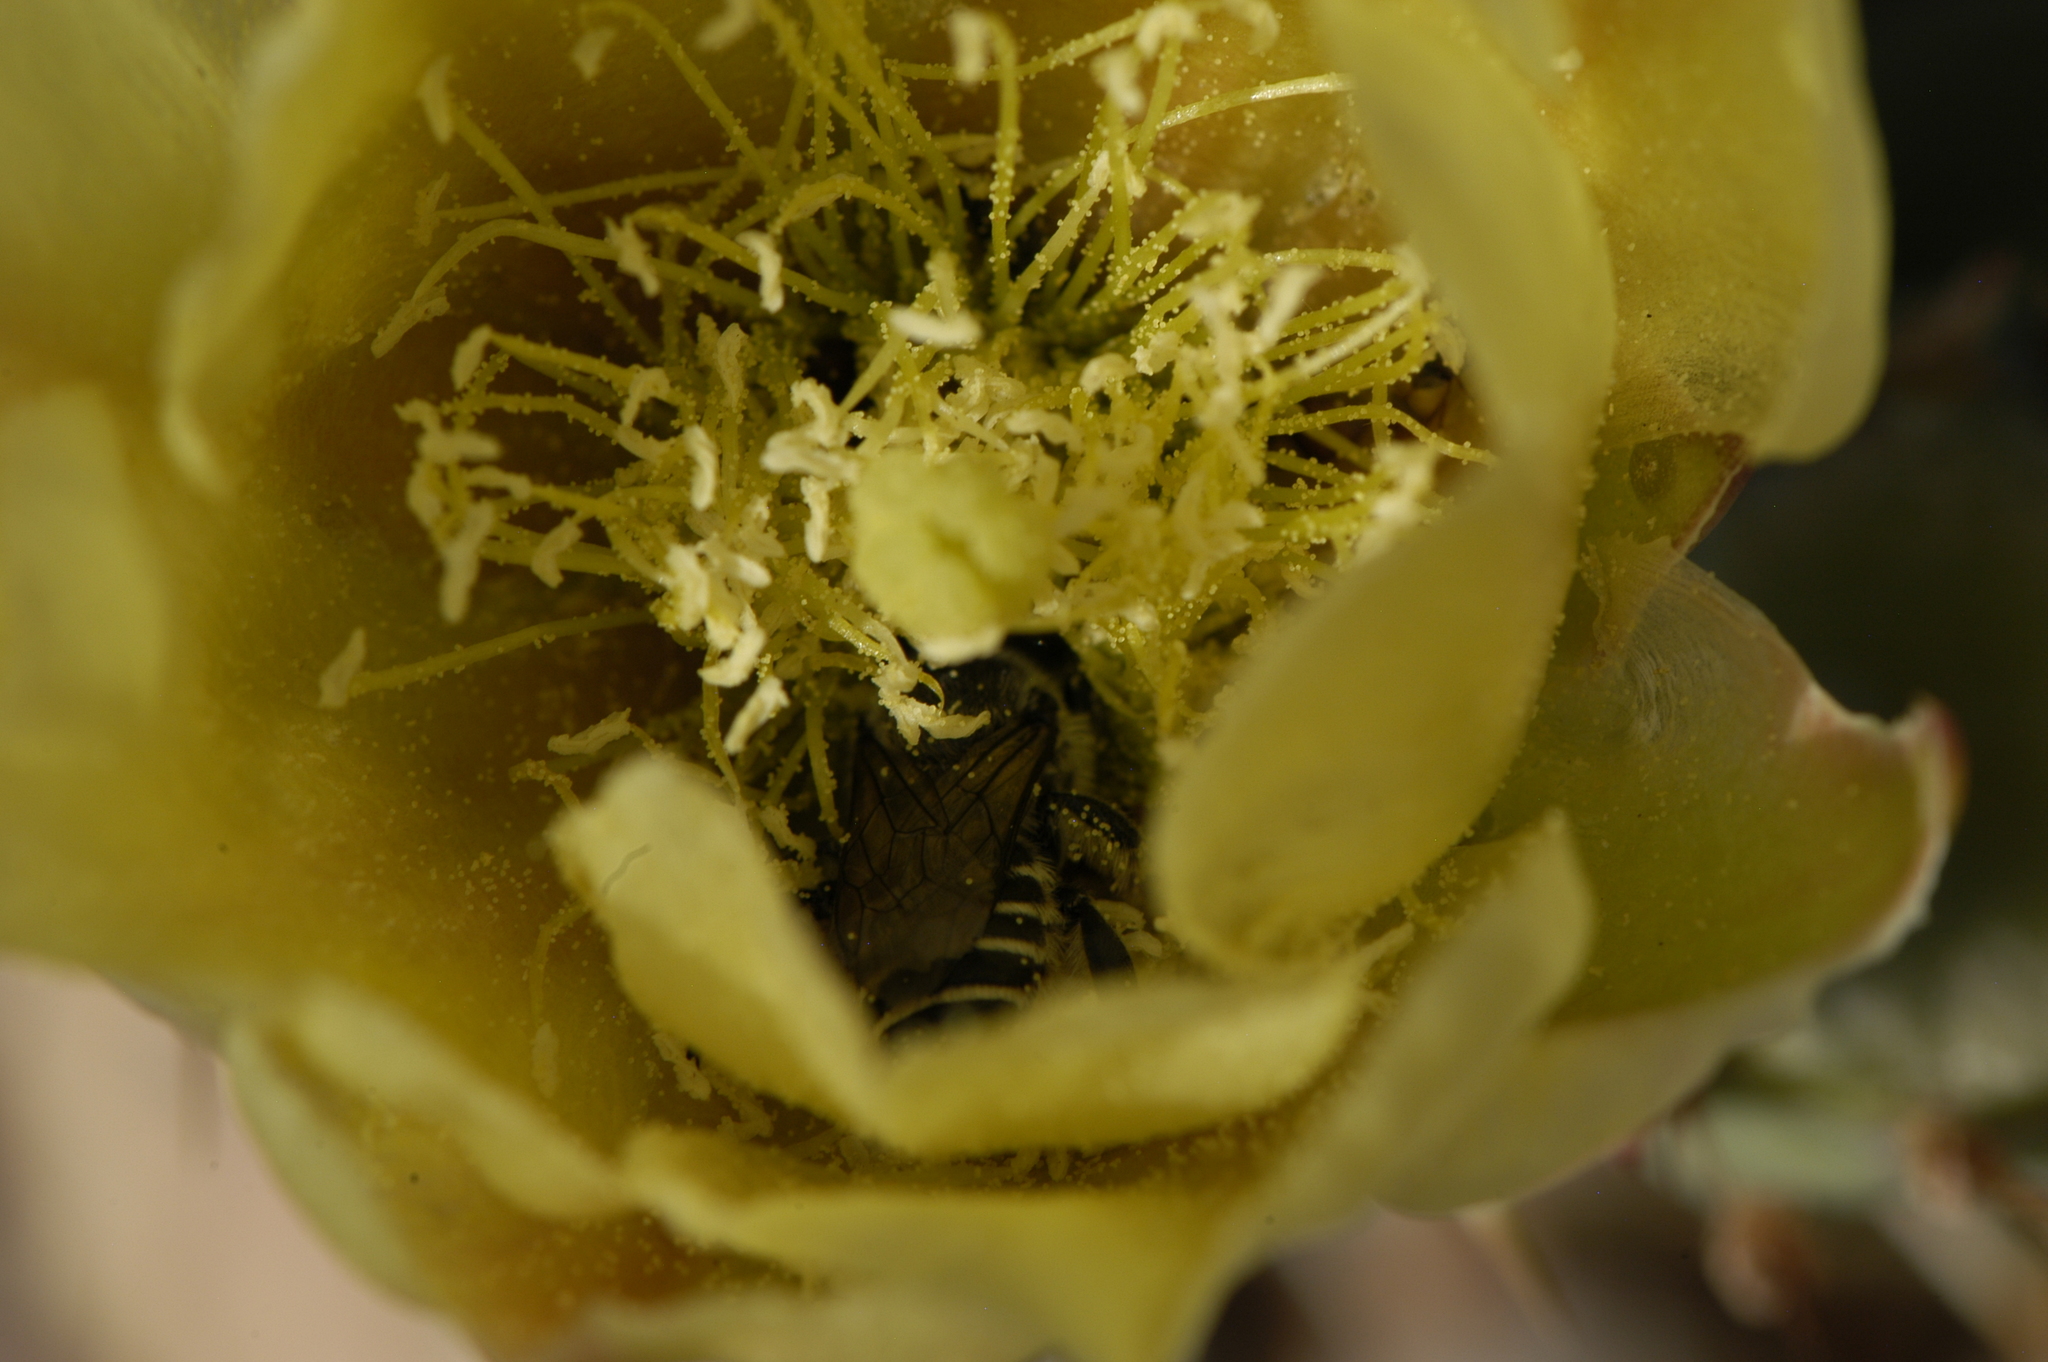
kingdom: Animalia
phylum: Arthropoda
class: Insecta
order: Hymenoptera
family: Megachilidae
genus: Lithurgopsis
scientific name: Lithurgopsis apicalis
